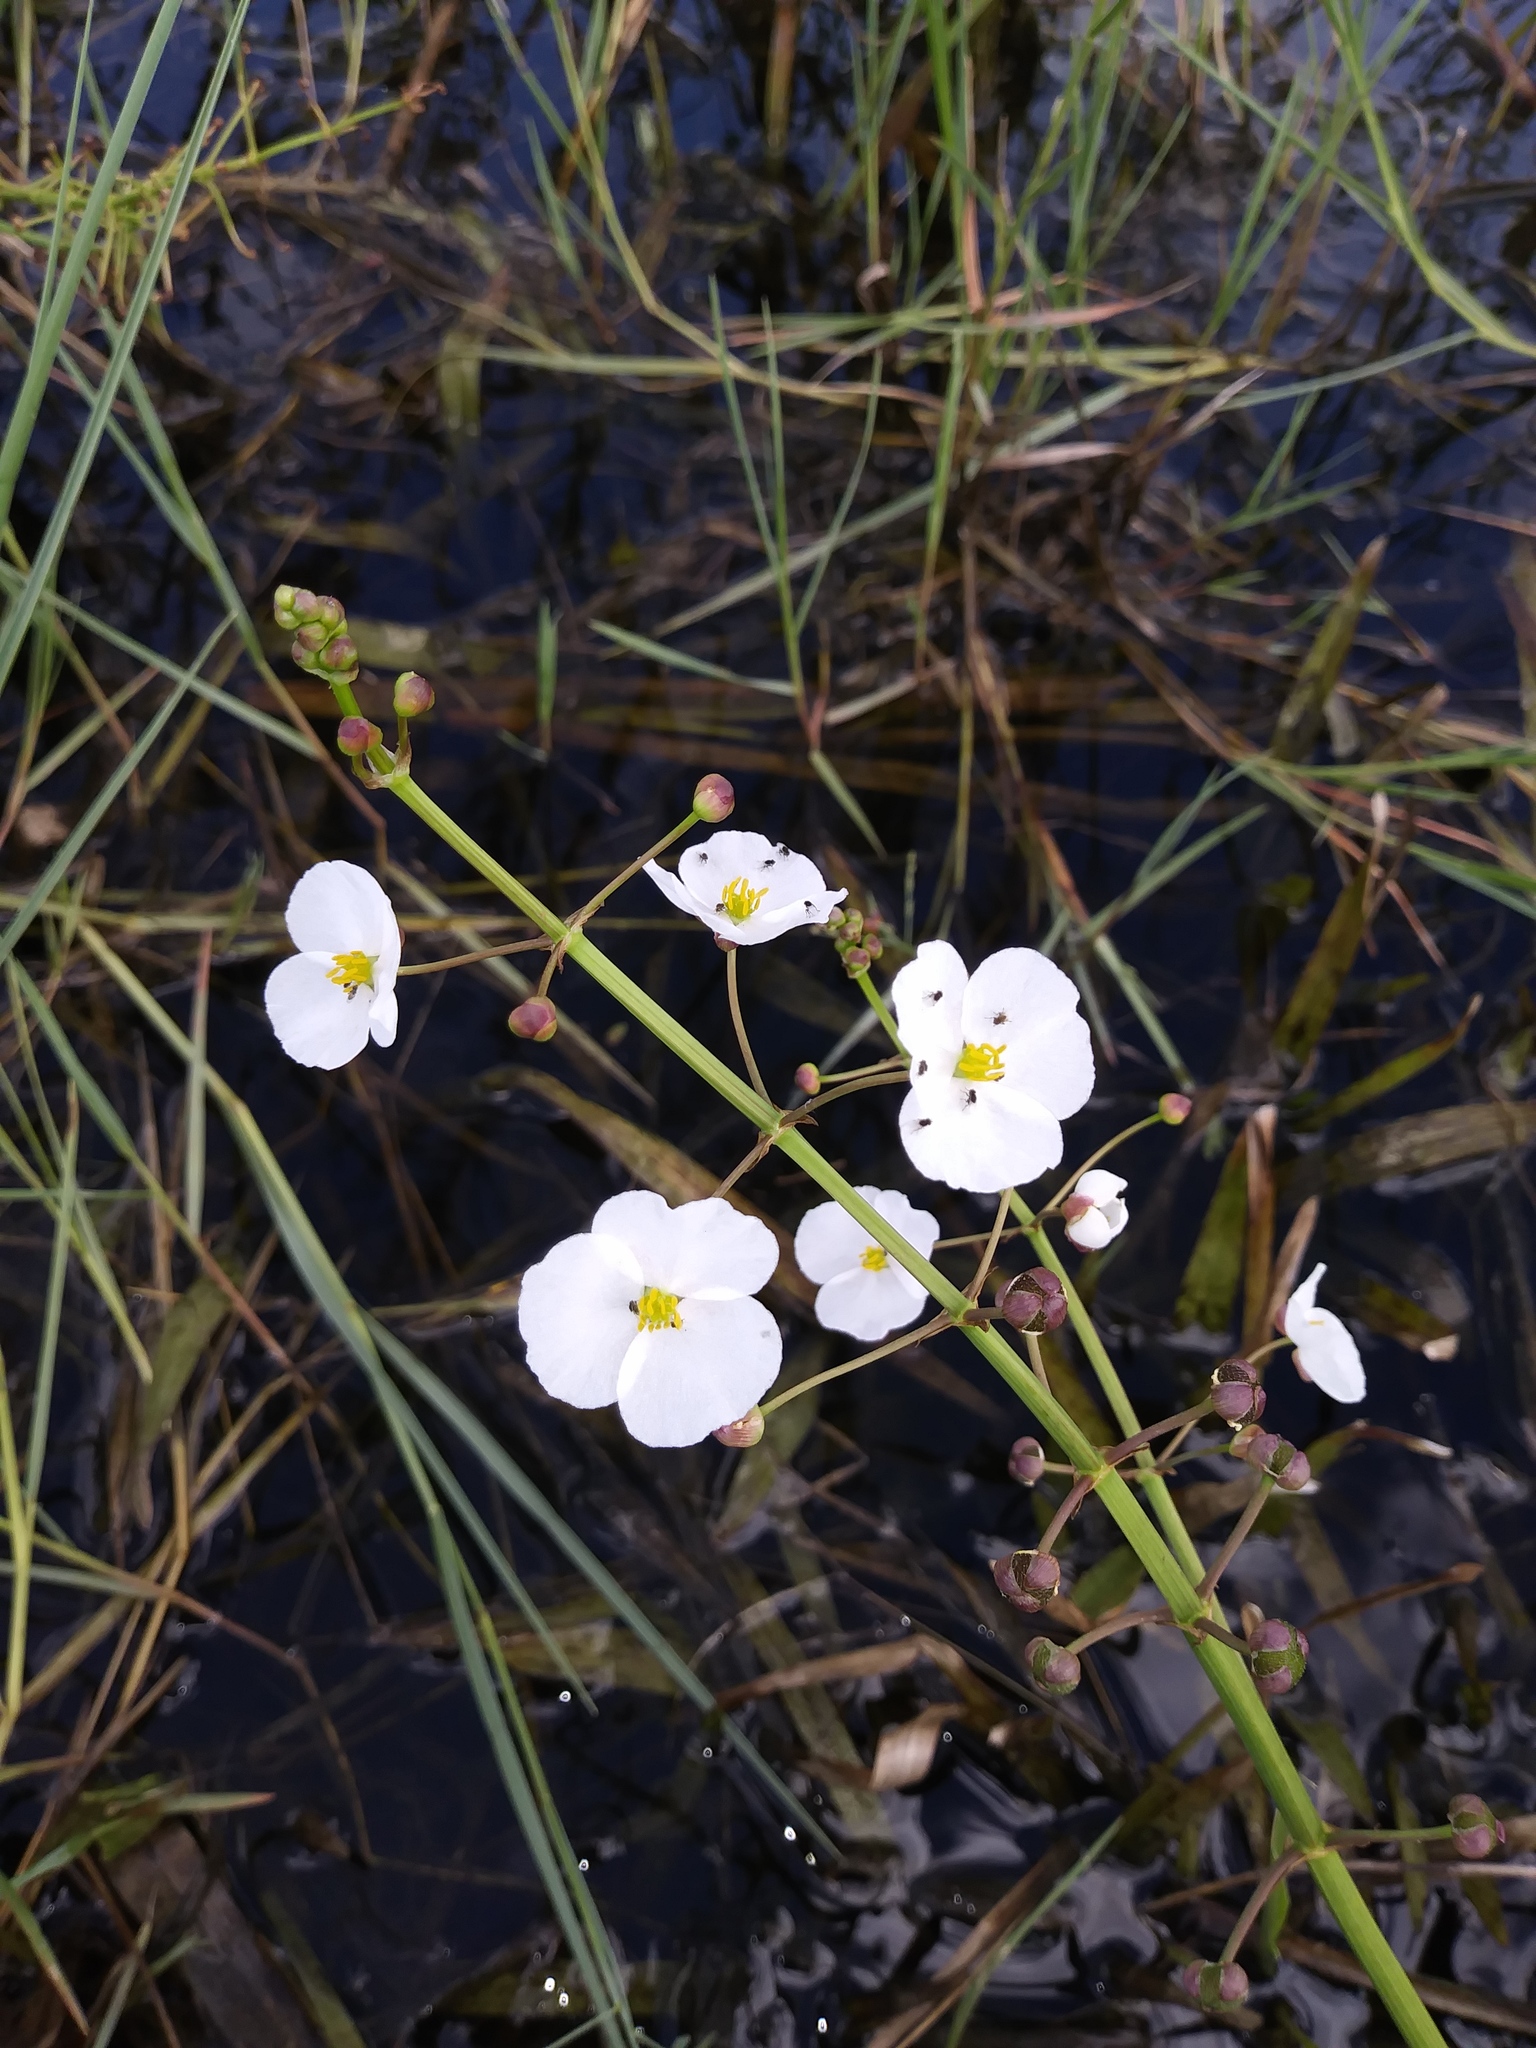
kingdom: Plantae
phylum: Tracheophyta
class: Liliopsida
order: Alismatales
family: Alismataceae
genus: Sagittaria
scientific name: Sagittaria graminea
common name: Grass-leaved arrowhead
